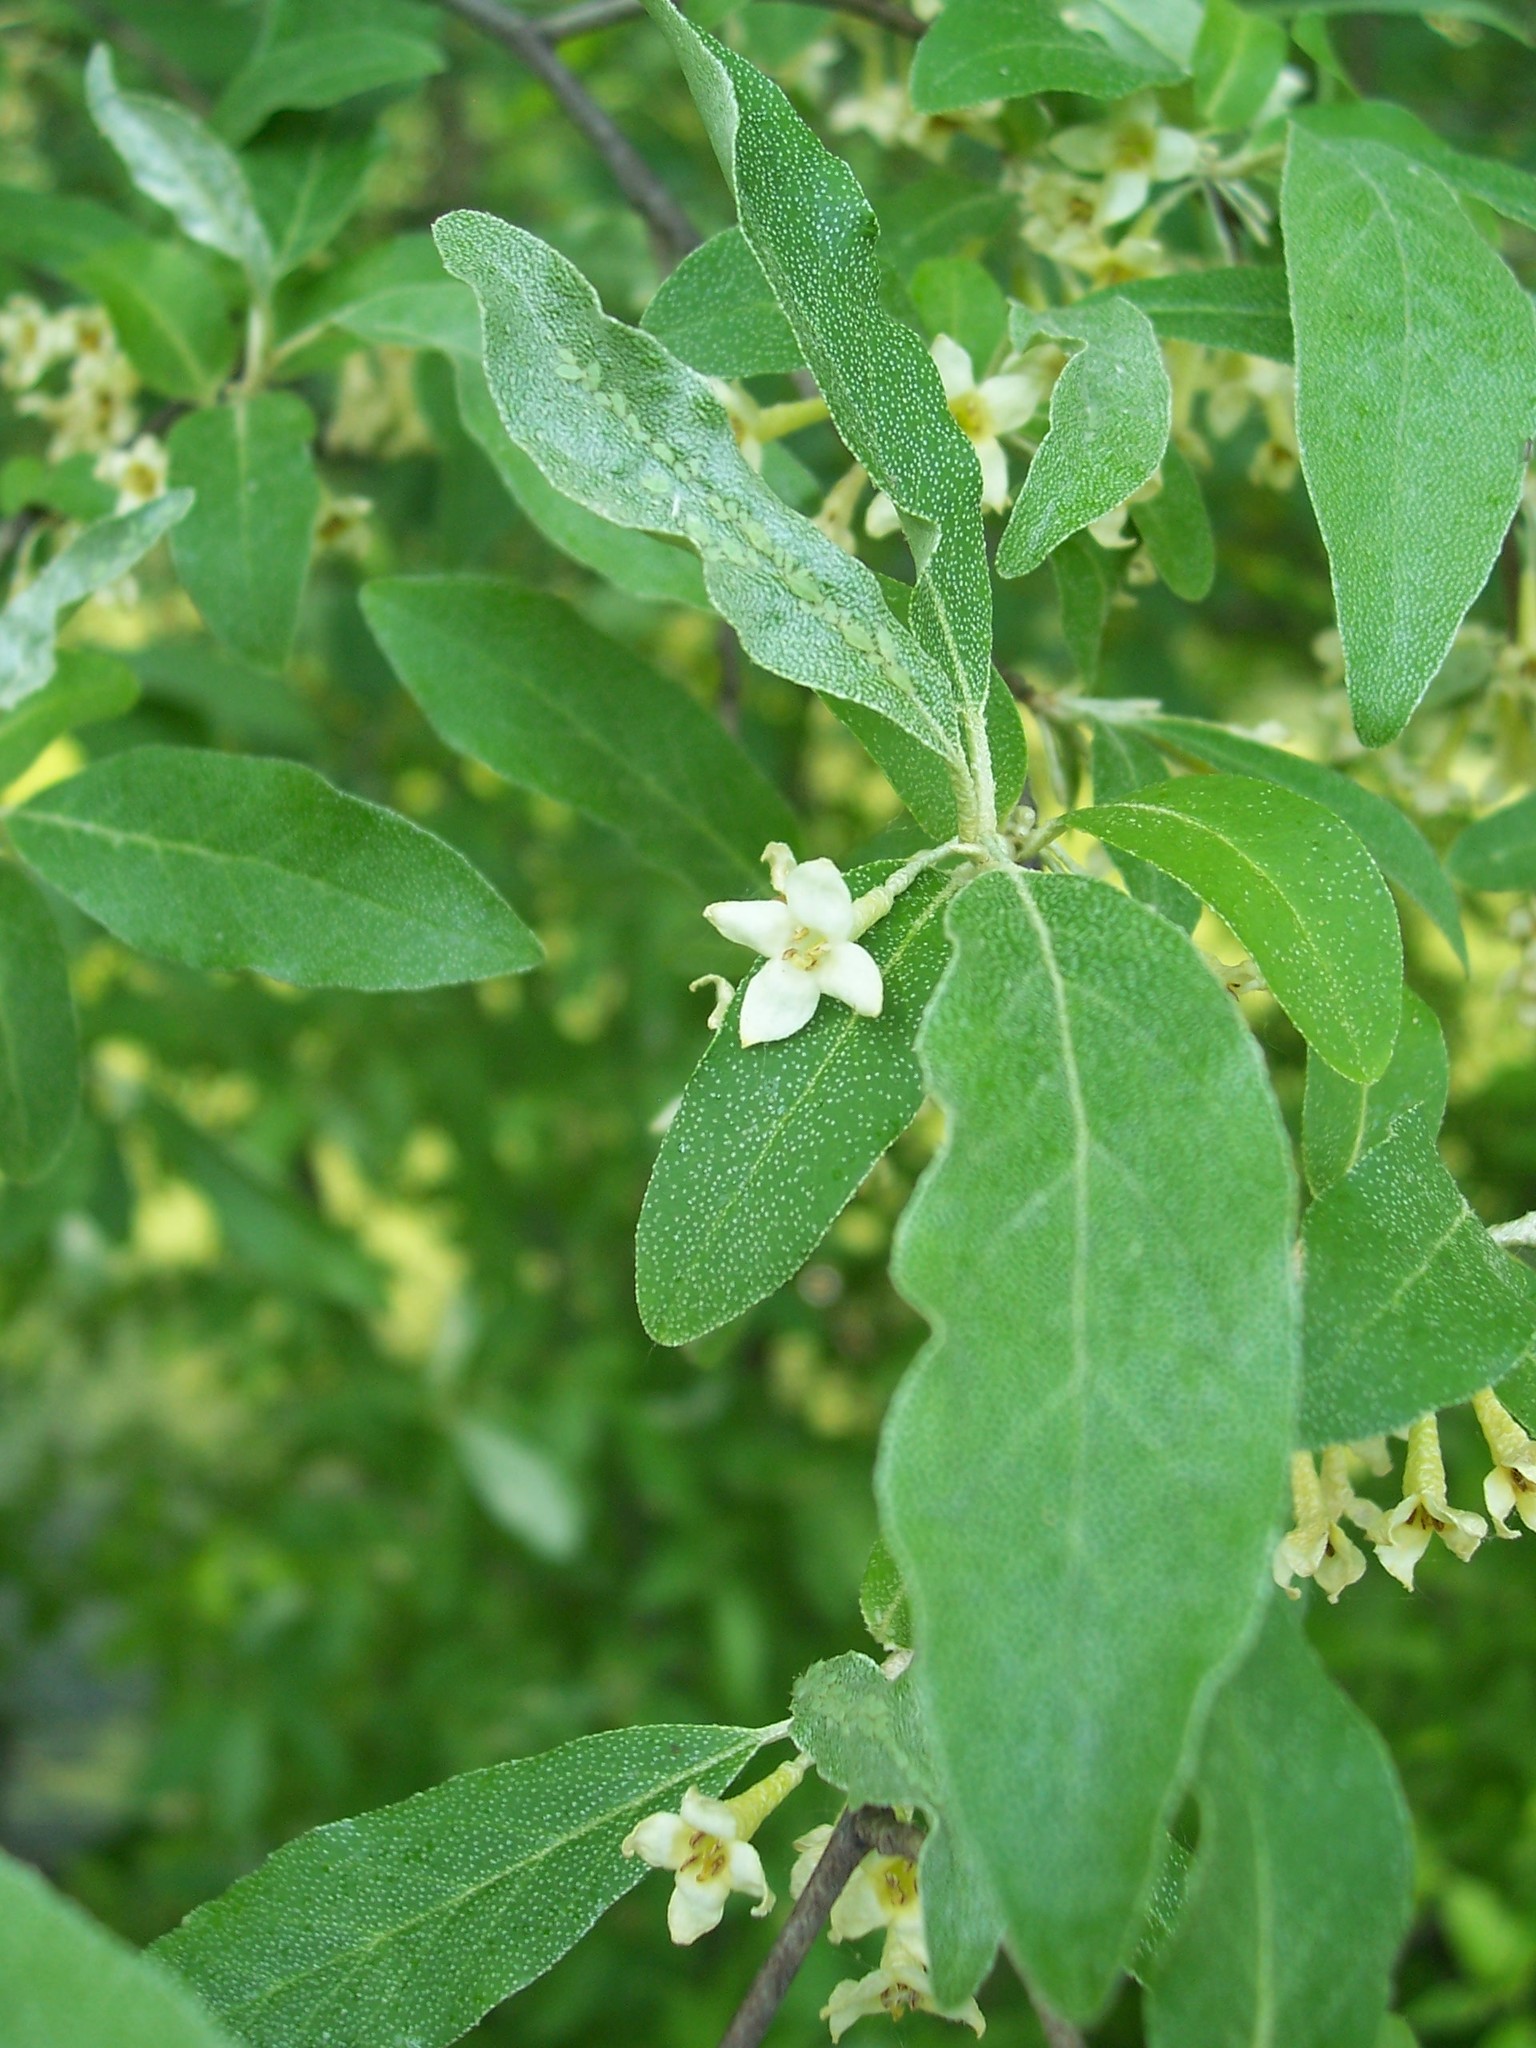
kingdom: Plantae
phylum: Tracheophyta
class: Magnoliopsida
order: Rosales
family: Elaeagnaceae
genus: Elaeagnus
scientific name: Elaeagnus umbellata
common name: Autumn olive
